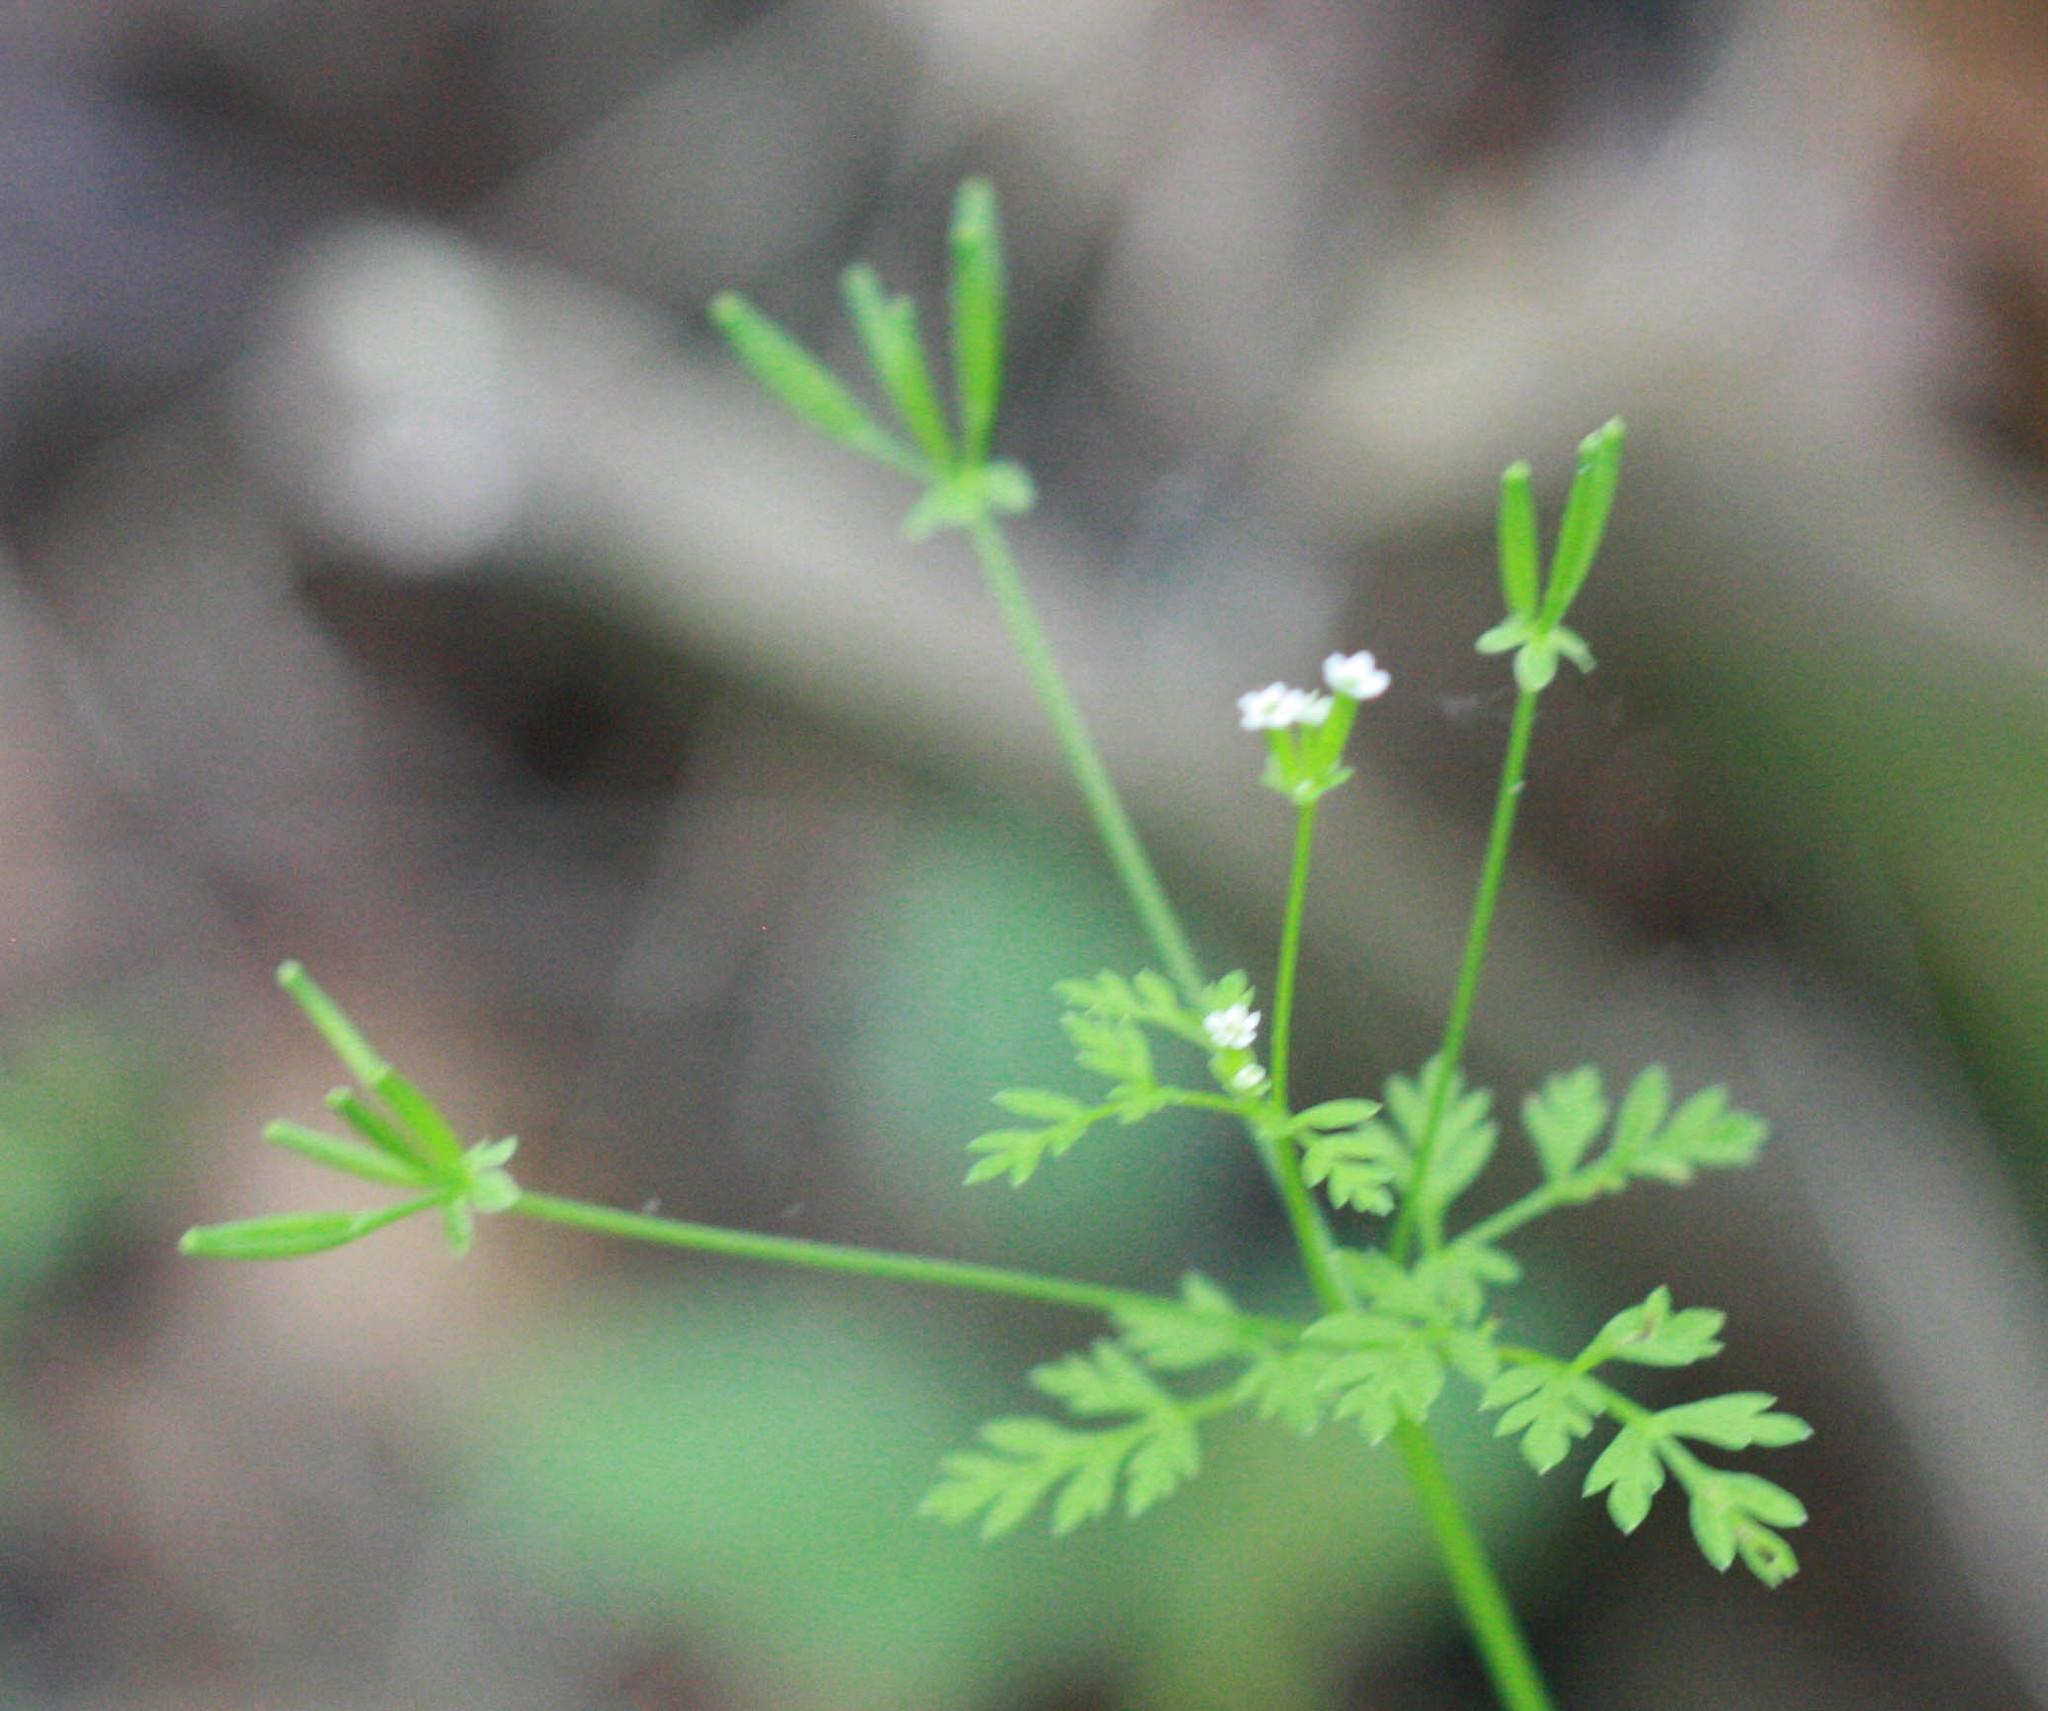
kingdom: Plantae
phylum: Tracheophyta
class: Magnoliopsida
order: Apiales
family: Apiaceae
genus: Chaerophyllum
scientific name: Chaerophyllum tainturieri
